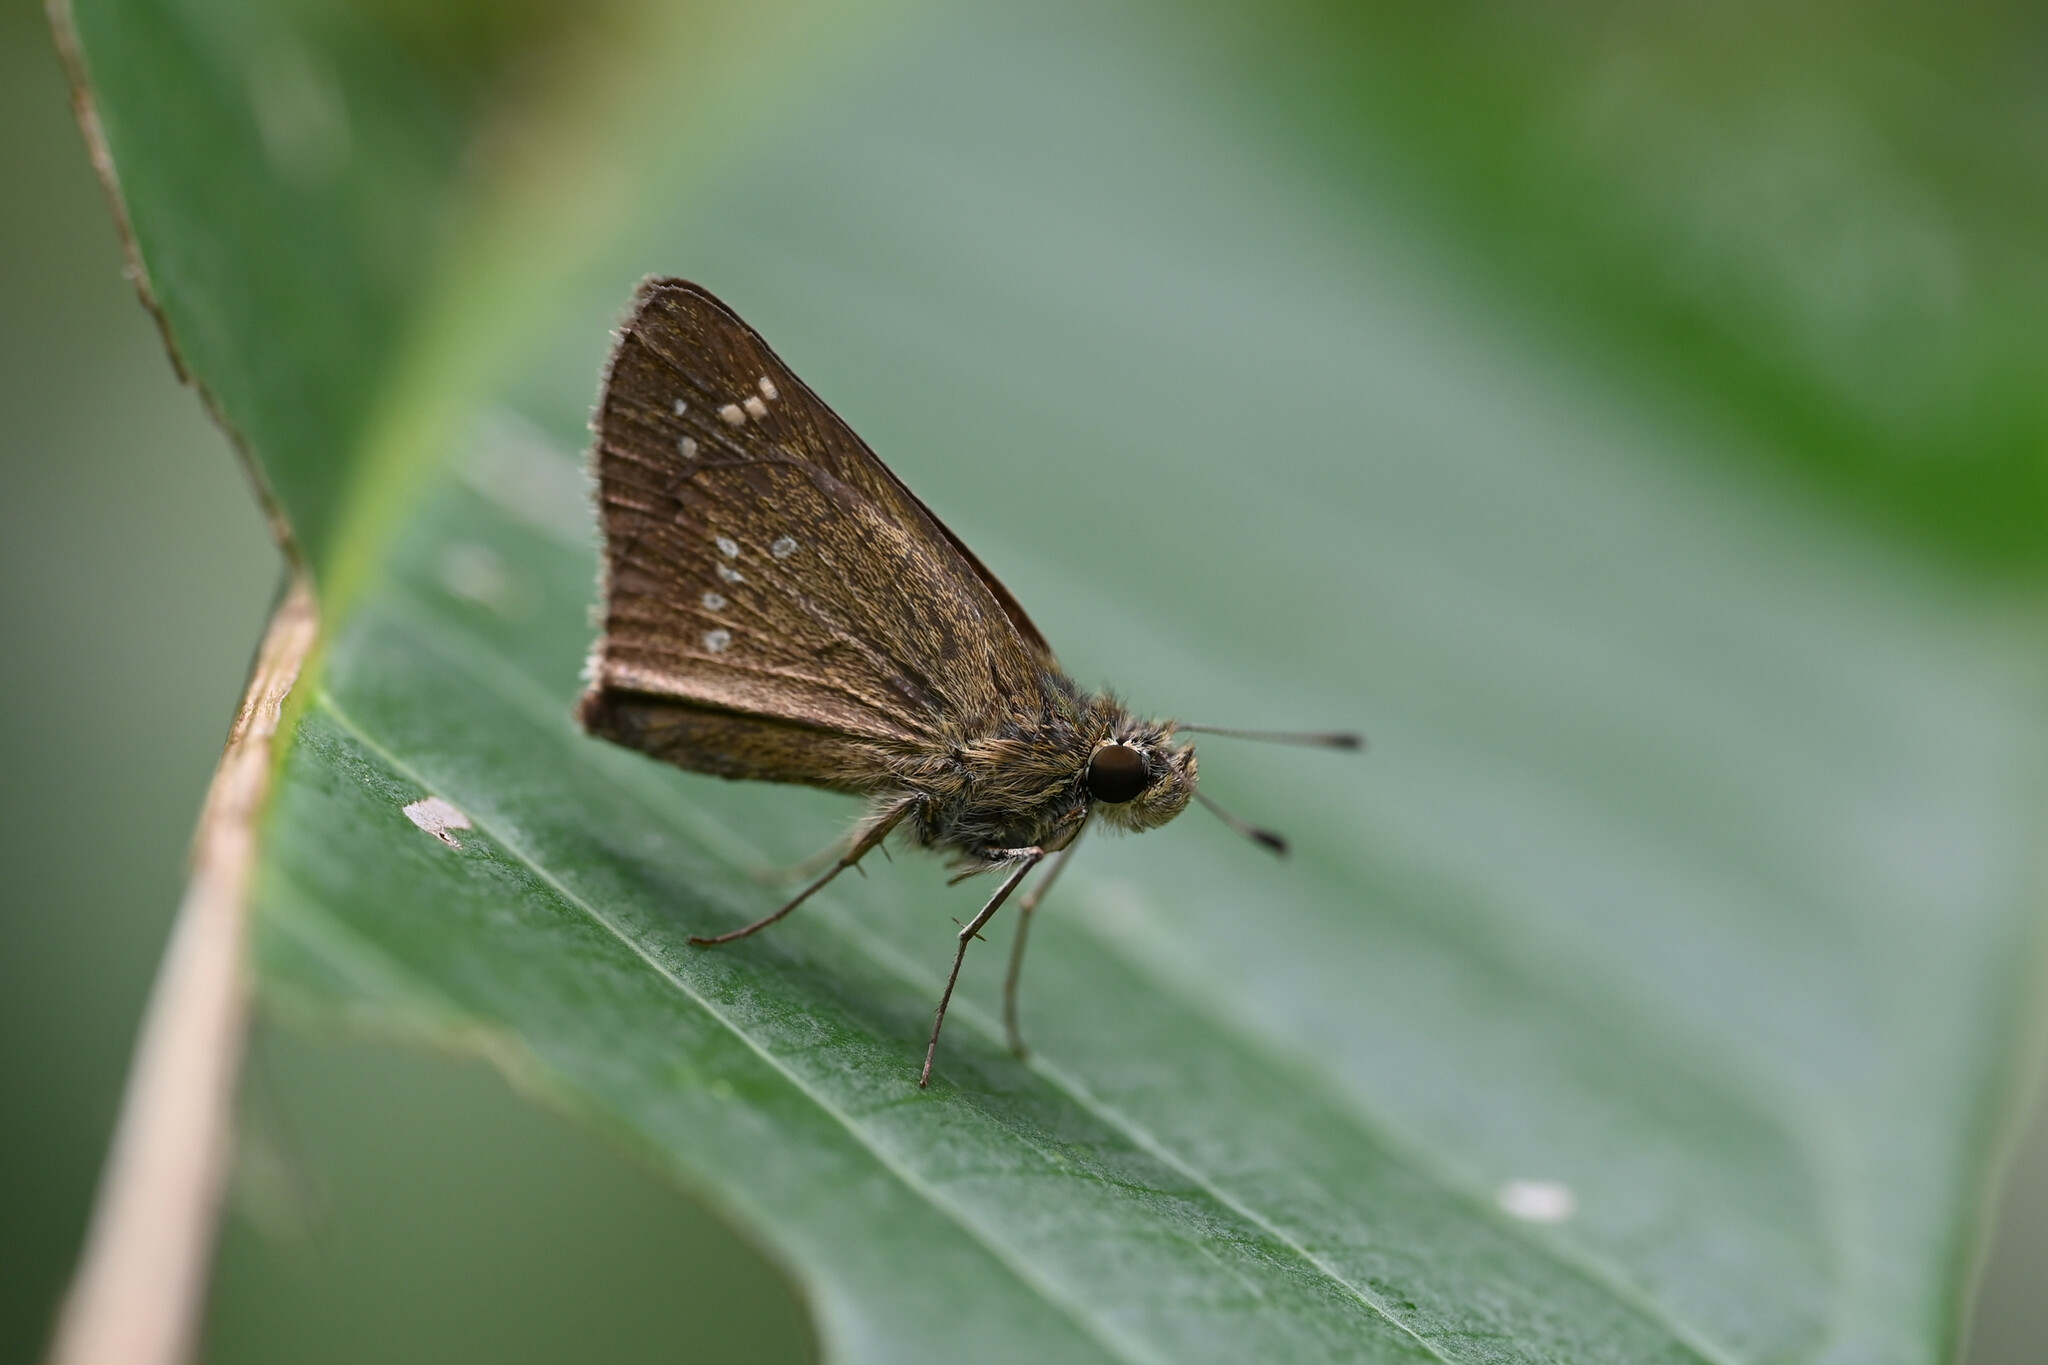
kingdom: Animalia
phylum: Arthropoda
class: Insecta
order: Lepidoptera
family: Hesperiidae
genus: Pseudoborbo
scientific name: Pseudoborbo bevani
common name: Bevan's swift
